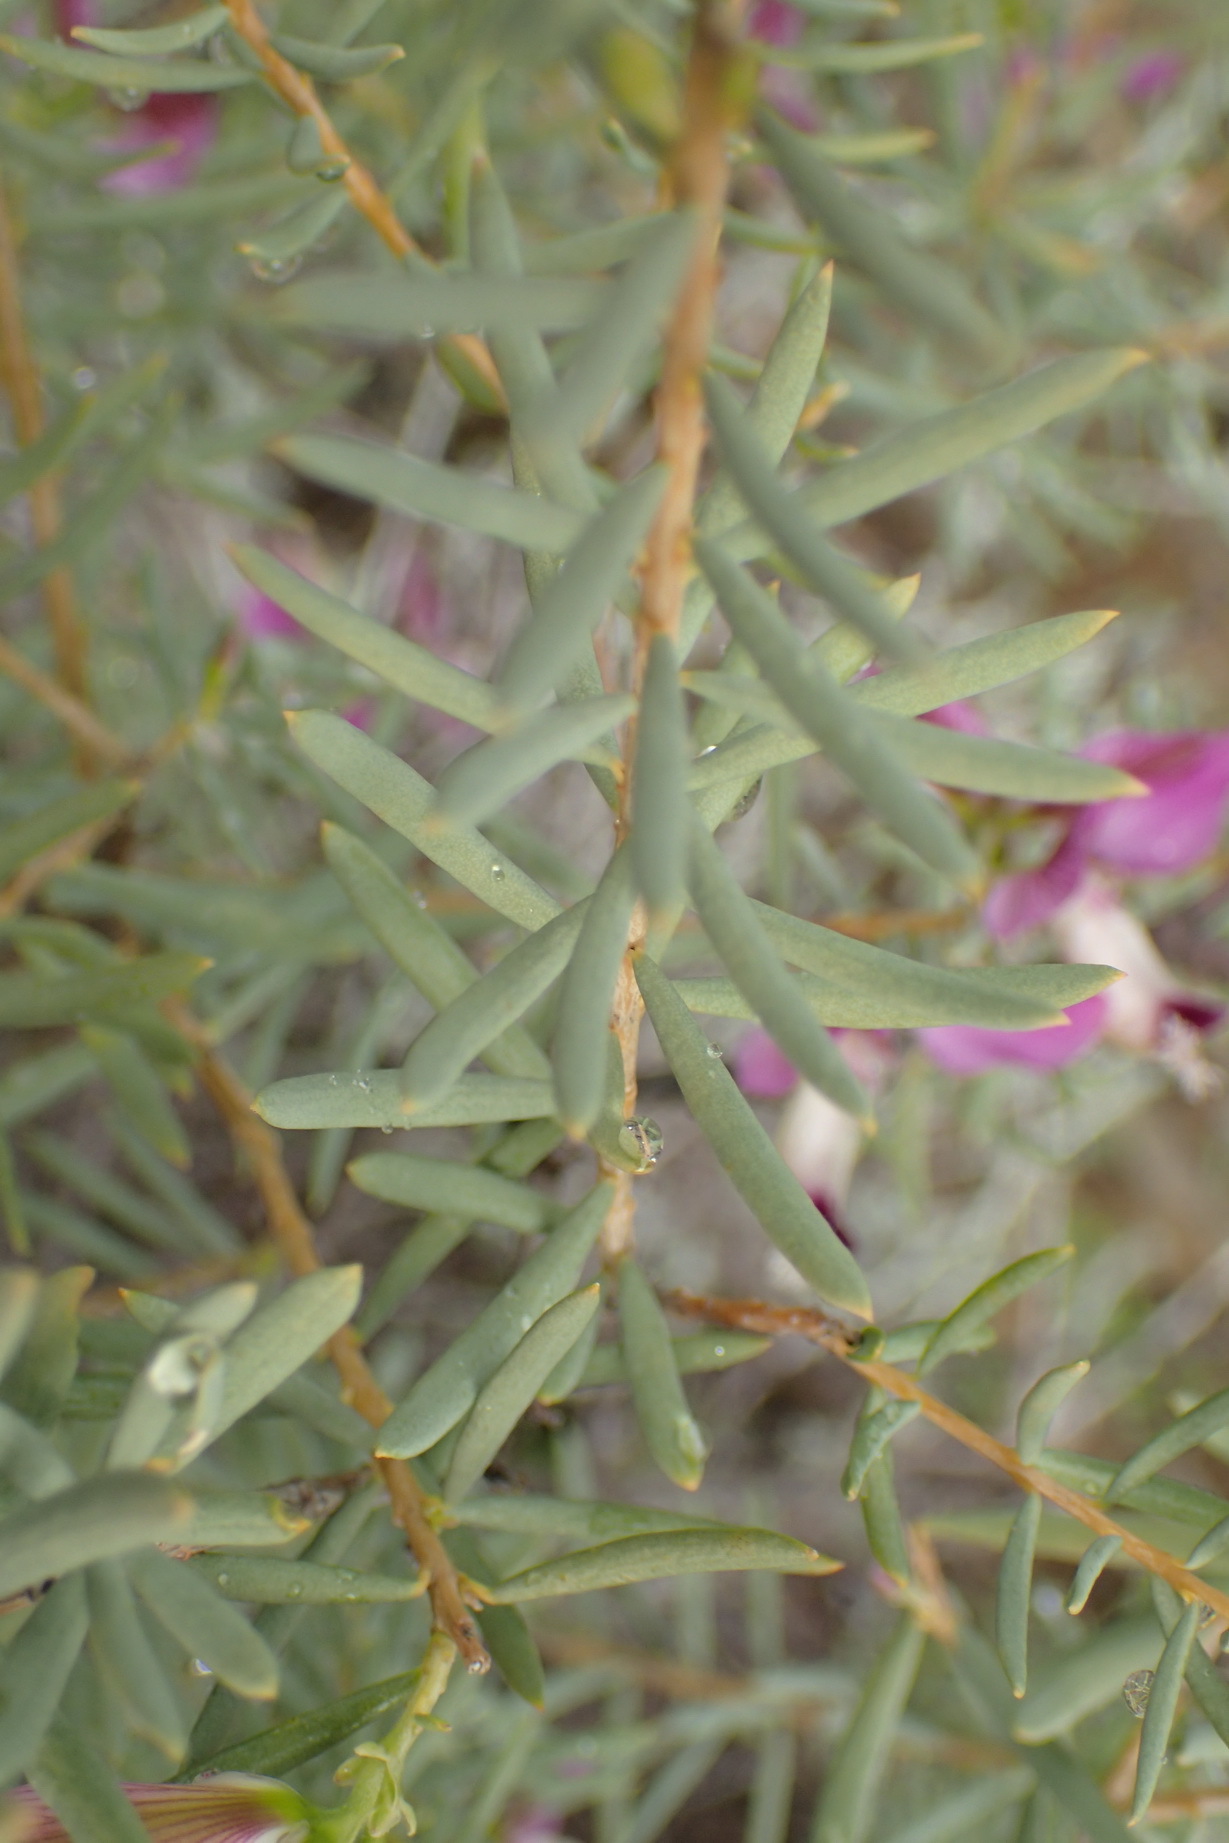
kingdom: Plantae
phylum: Tracheophyta
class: Magnoliopsida
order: Fabales
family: Polygalaceae
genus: Polygala
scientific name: Polygala myrtifolia
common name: Myrtle-leaf milkwort
